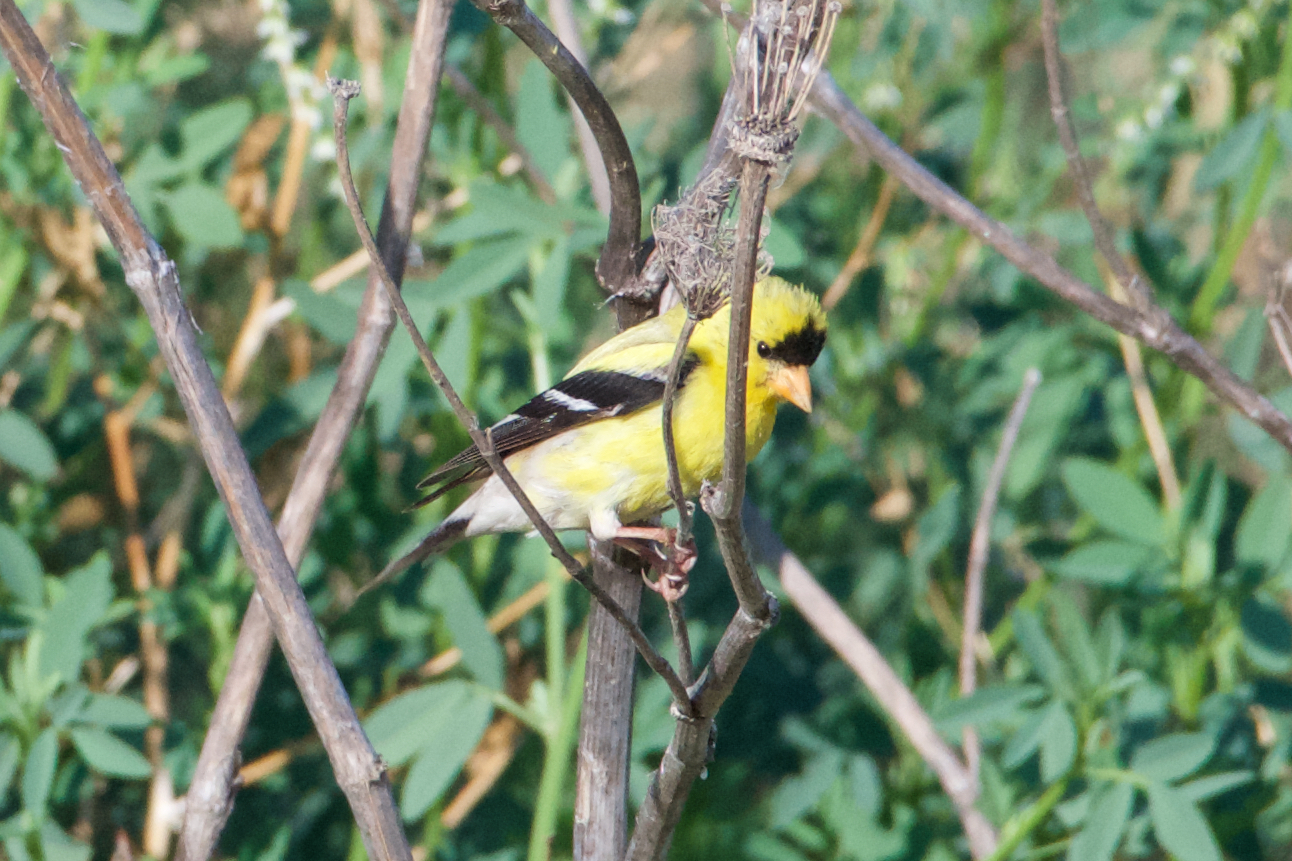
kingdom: Animalia
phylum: Chordata
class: Aves
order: Passeriformes
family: Fringillidae
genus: Spinus
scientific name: Spinus tristis
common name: American goldfinch
